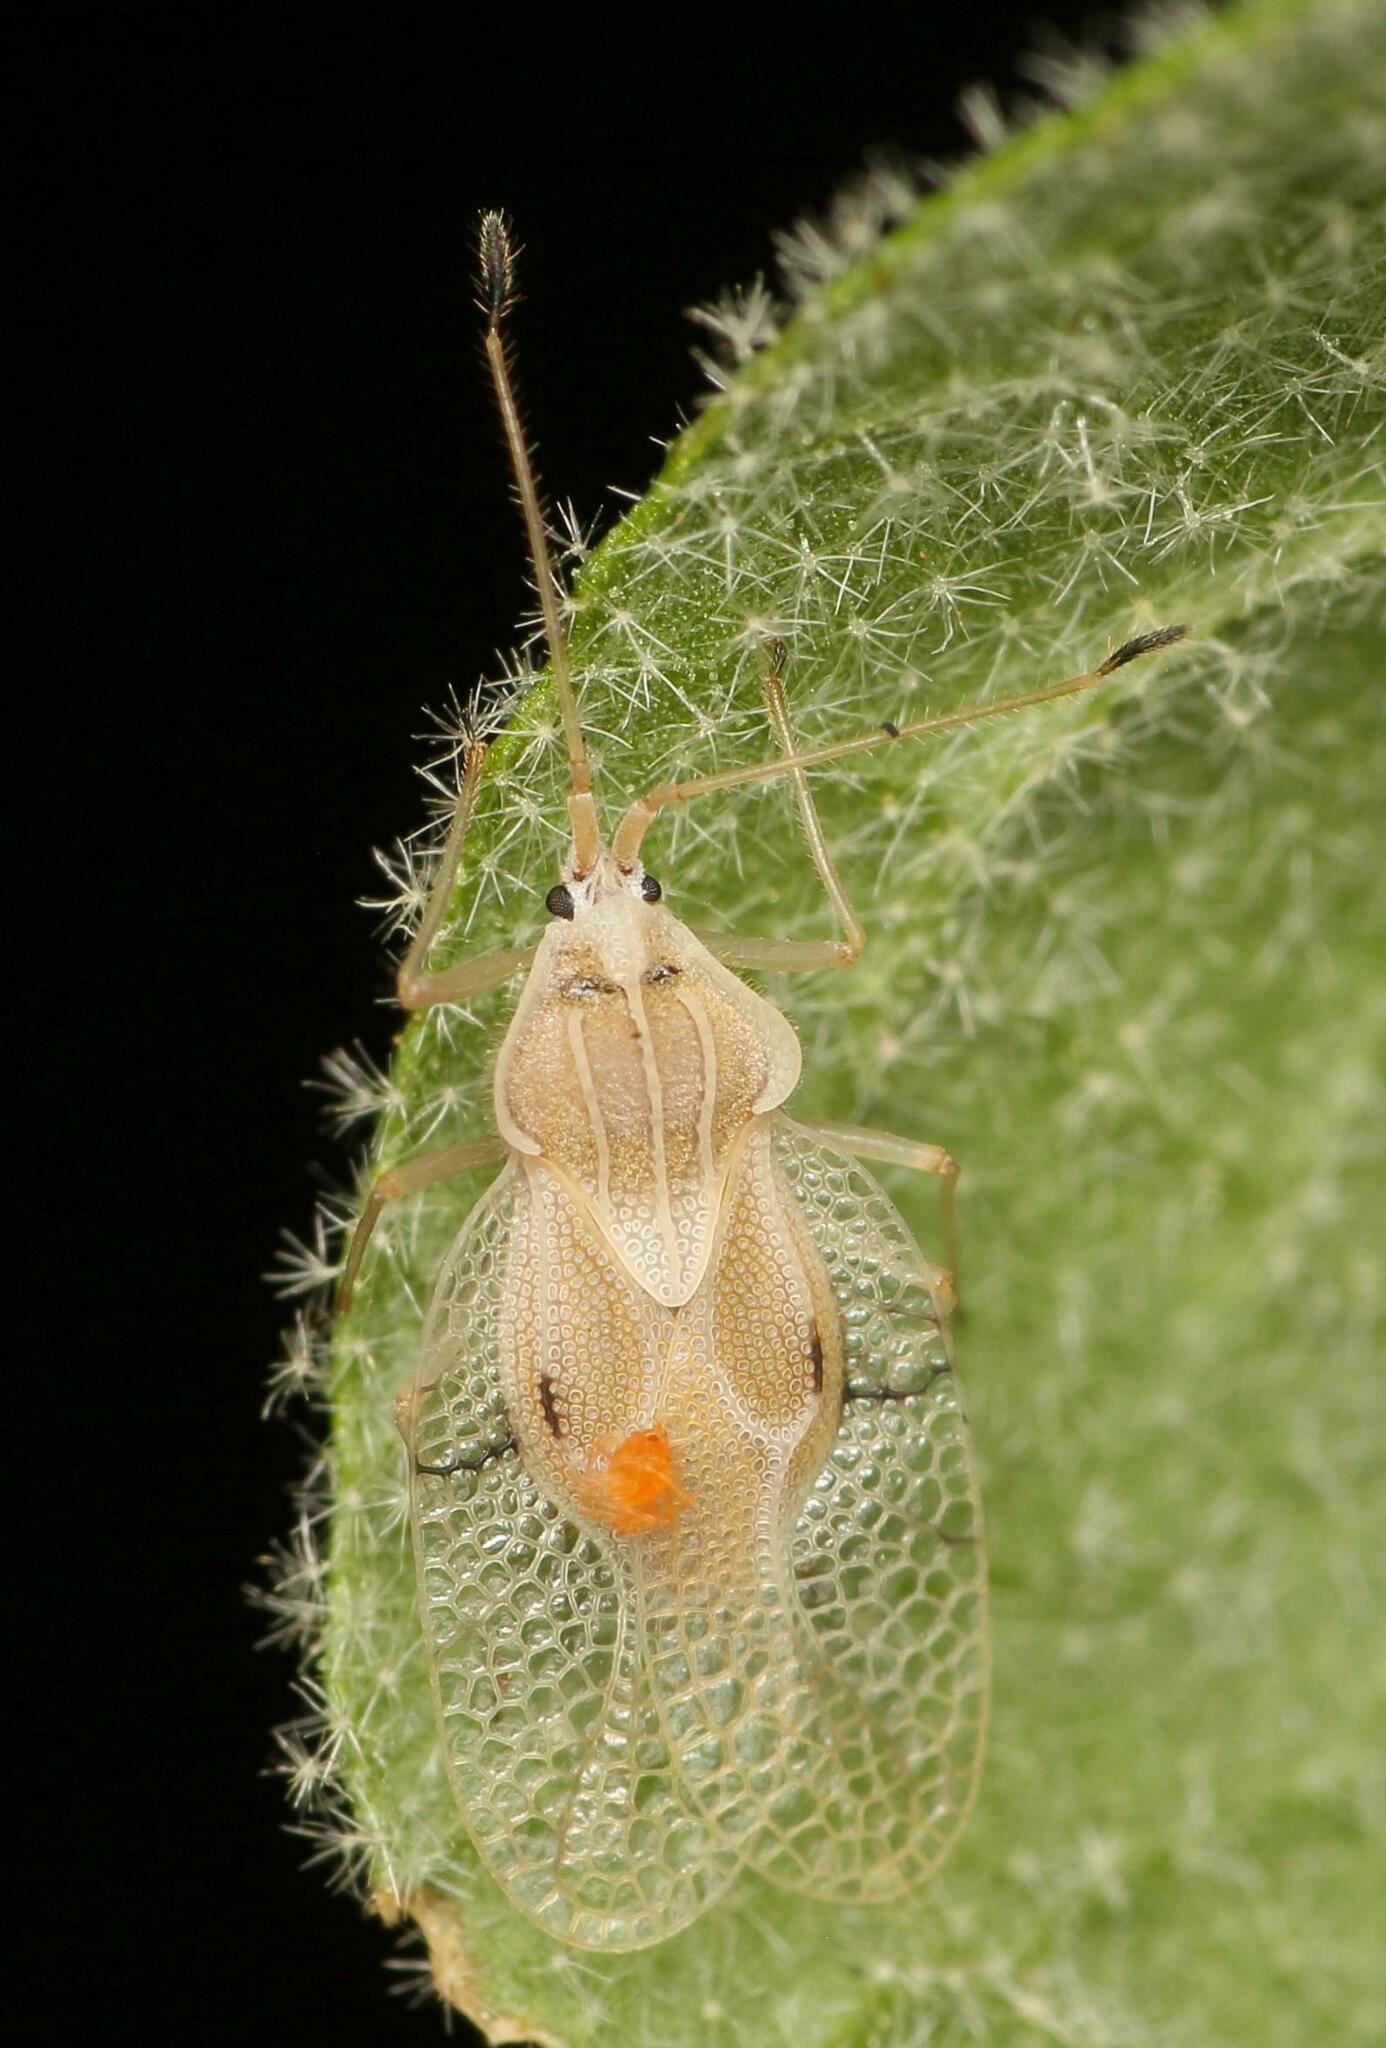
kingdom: Animalia
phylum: Arthropoda
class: Insecta
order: Hemiptera
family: Tingidae
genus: Gargaphia
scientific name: Gargaphia decoris
